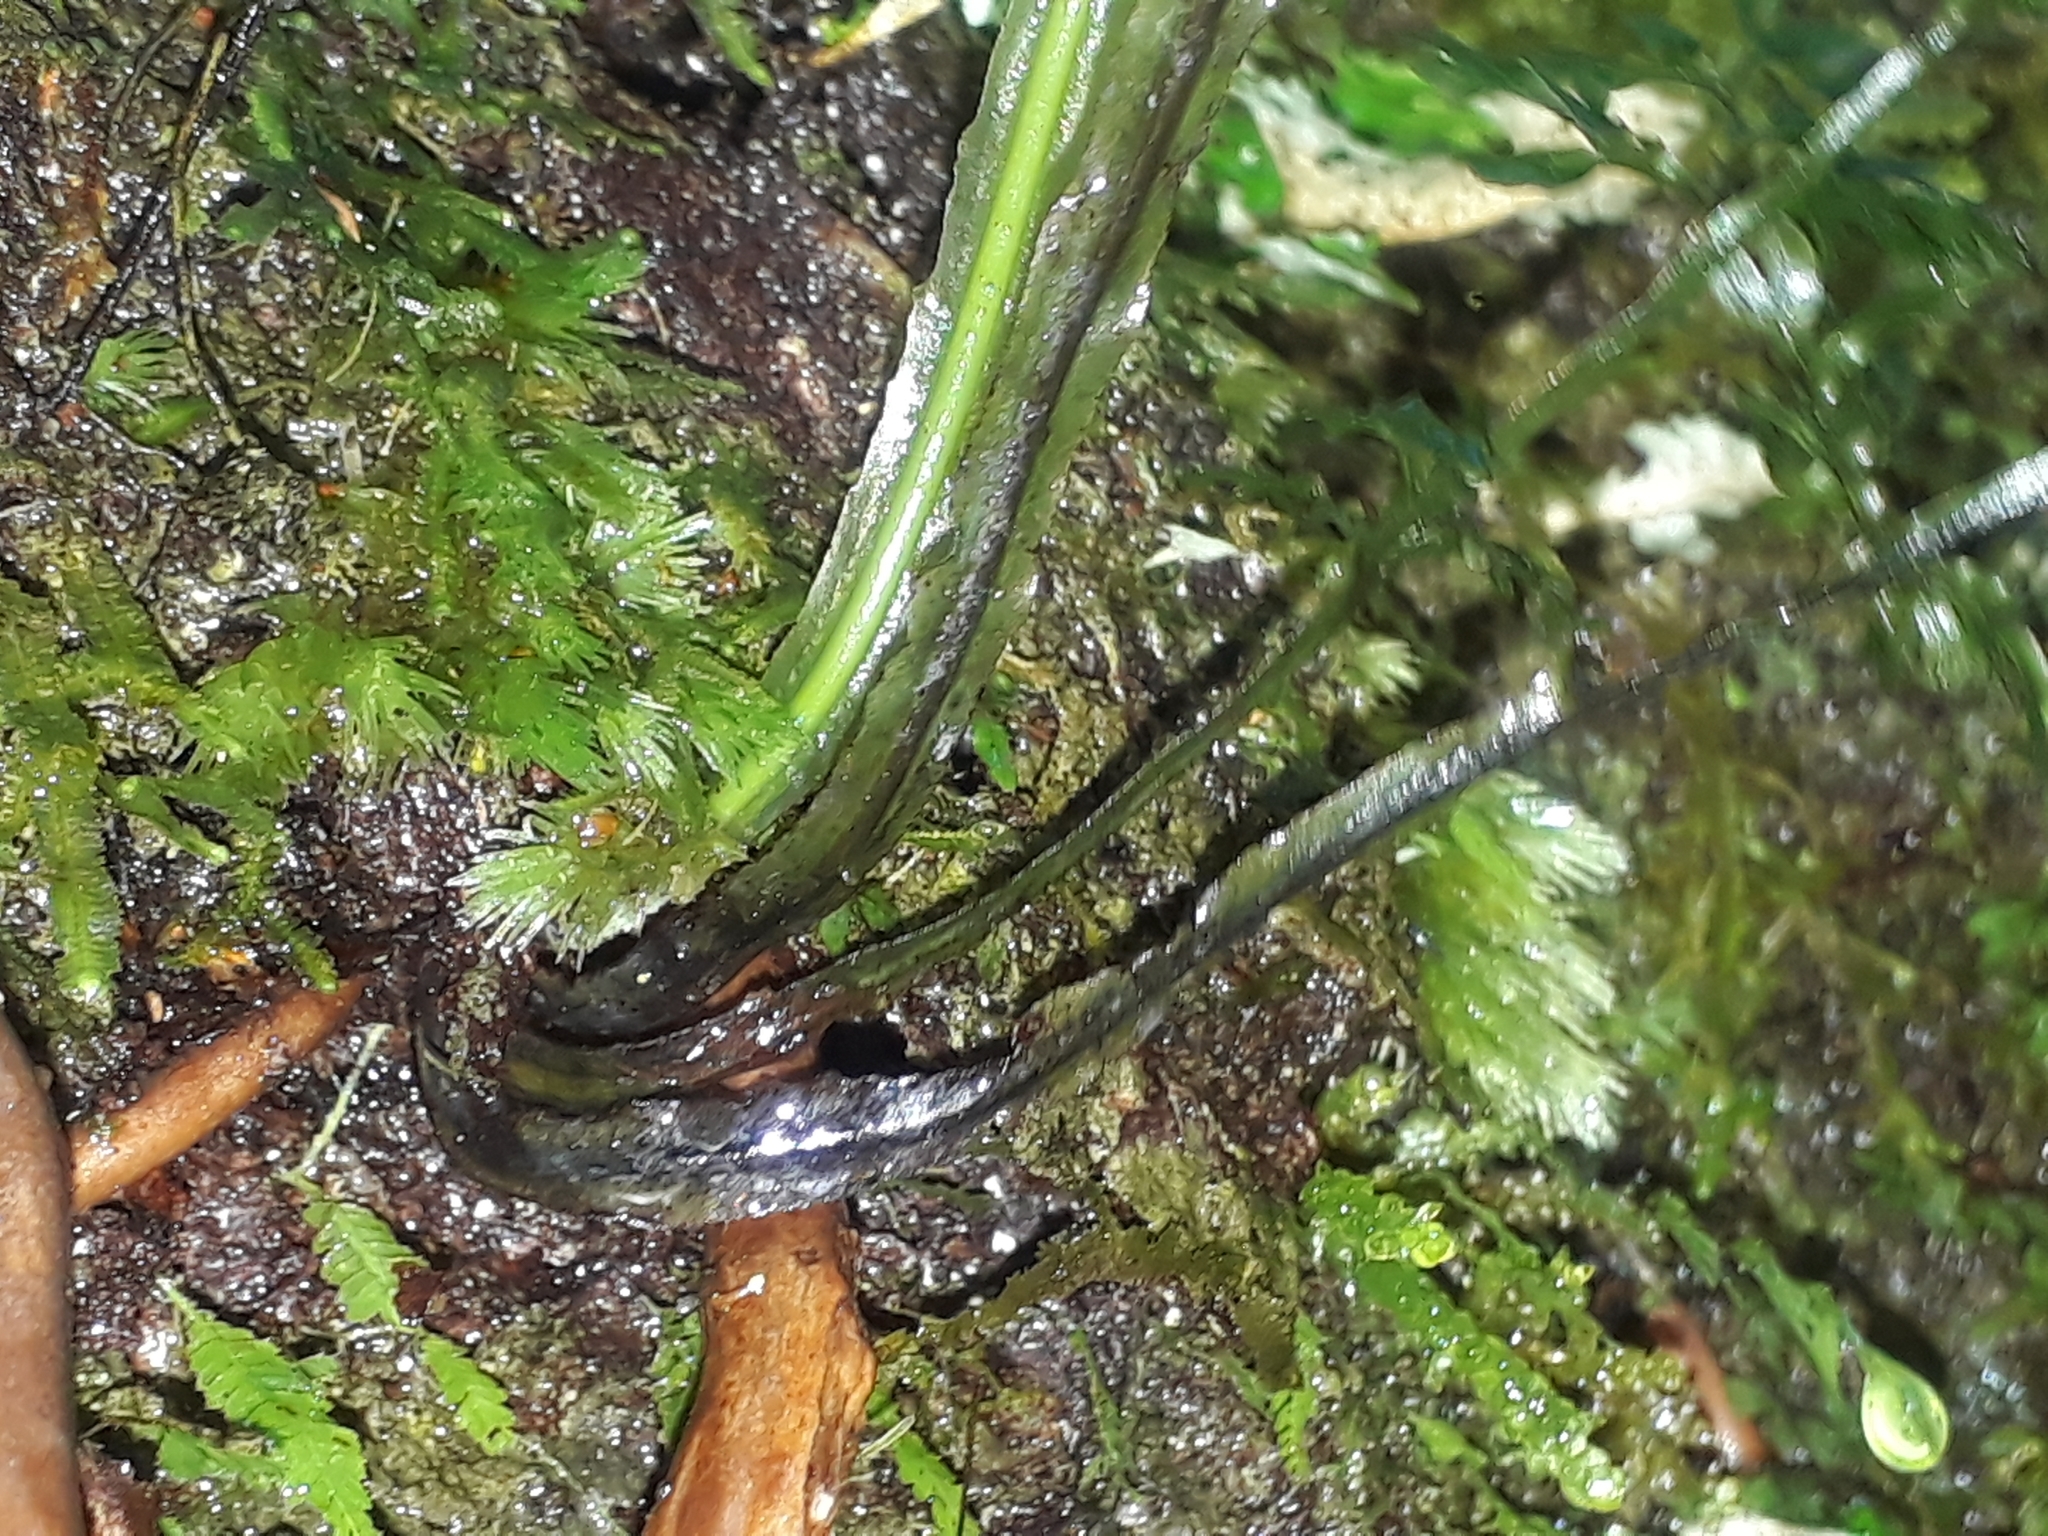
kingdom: Plantae
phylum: Tracheophyta
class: Polypodiopsida
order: Hymenophyllales
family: Hymenophyllaceae
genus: Hymenophyllum
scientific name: Hymenophyllum pulcherrimum
